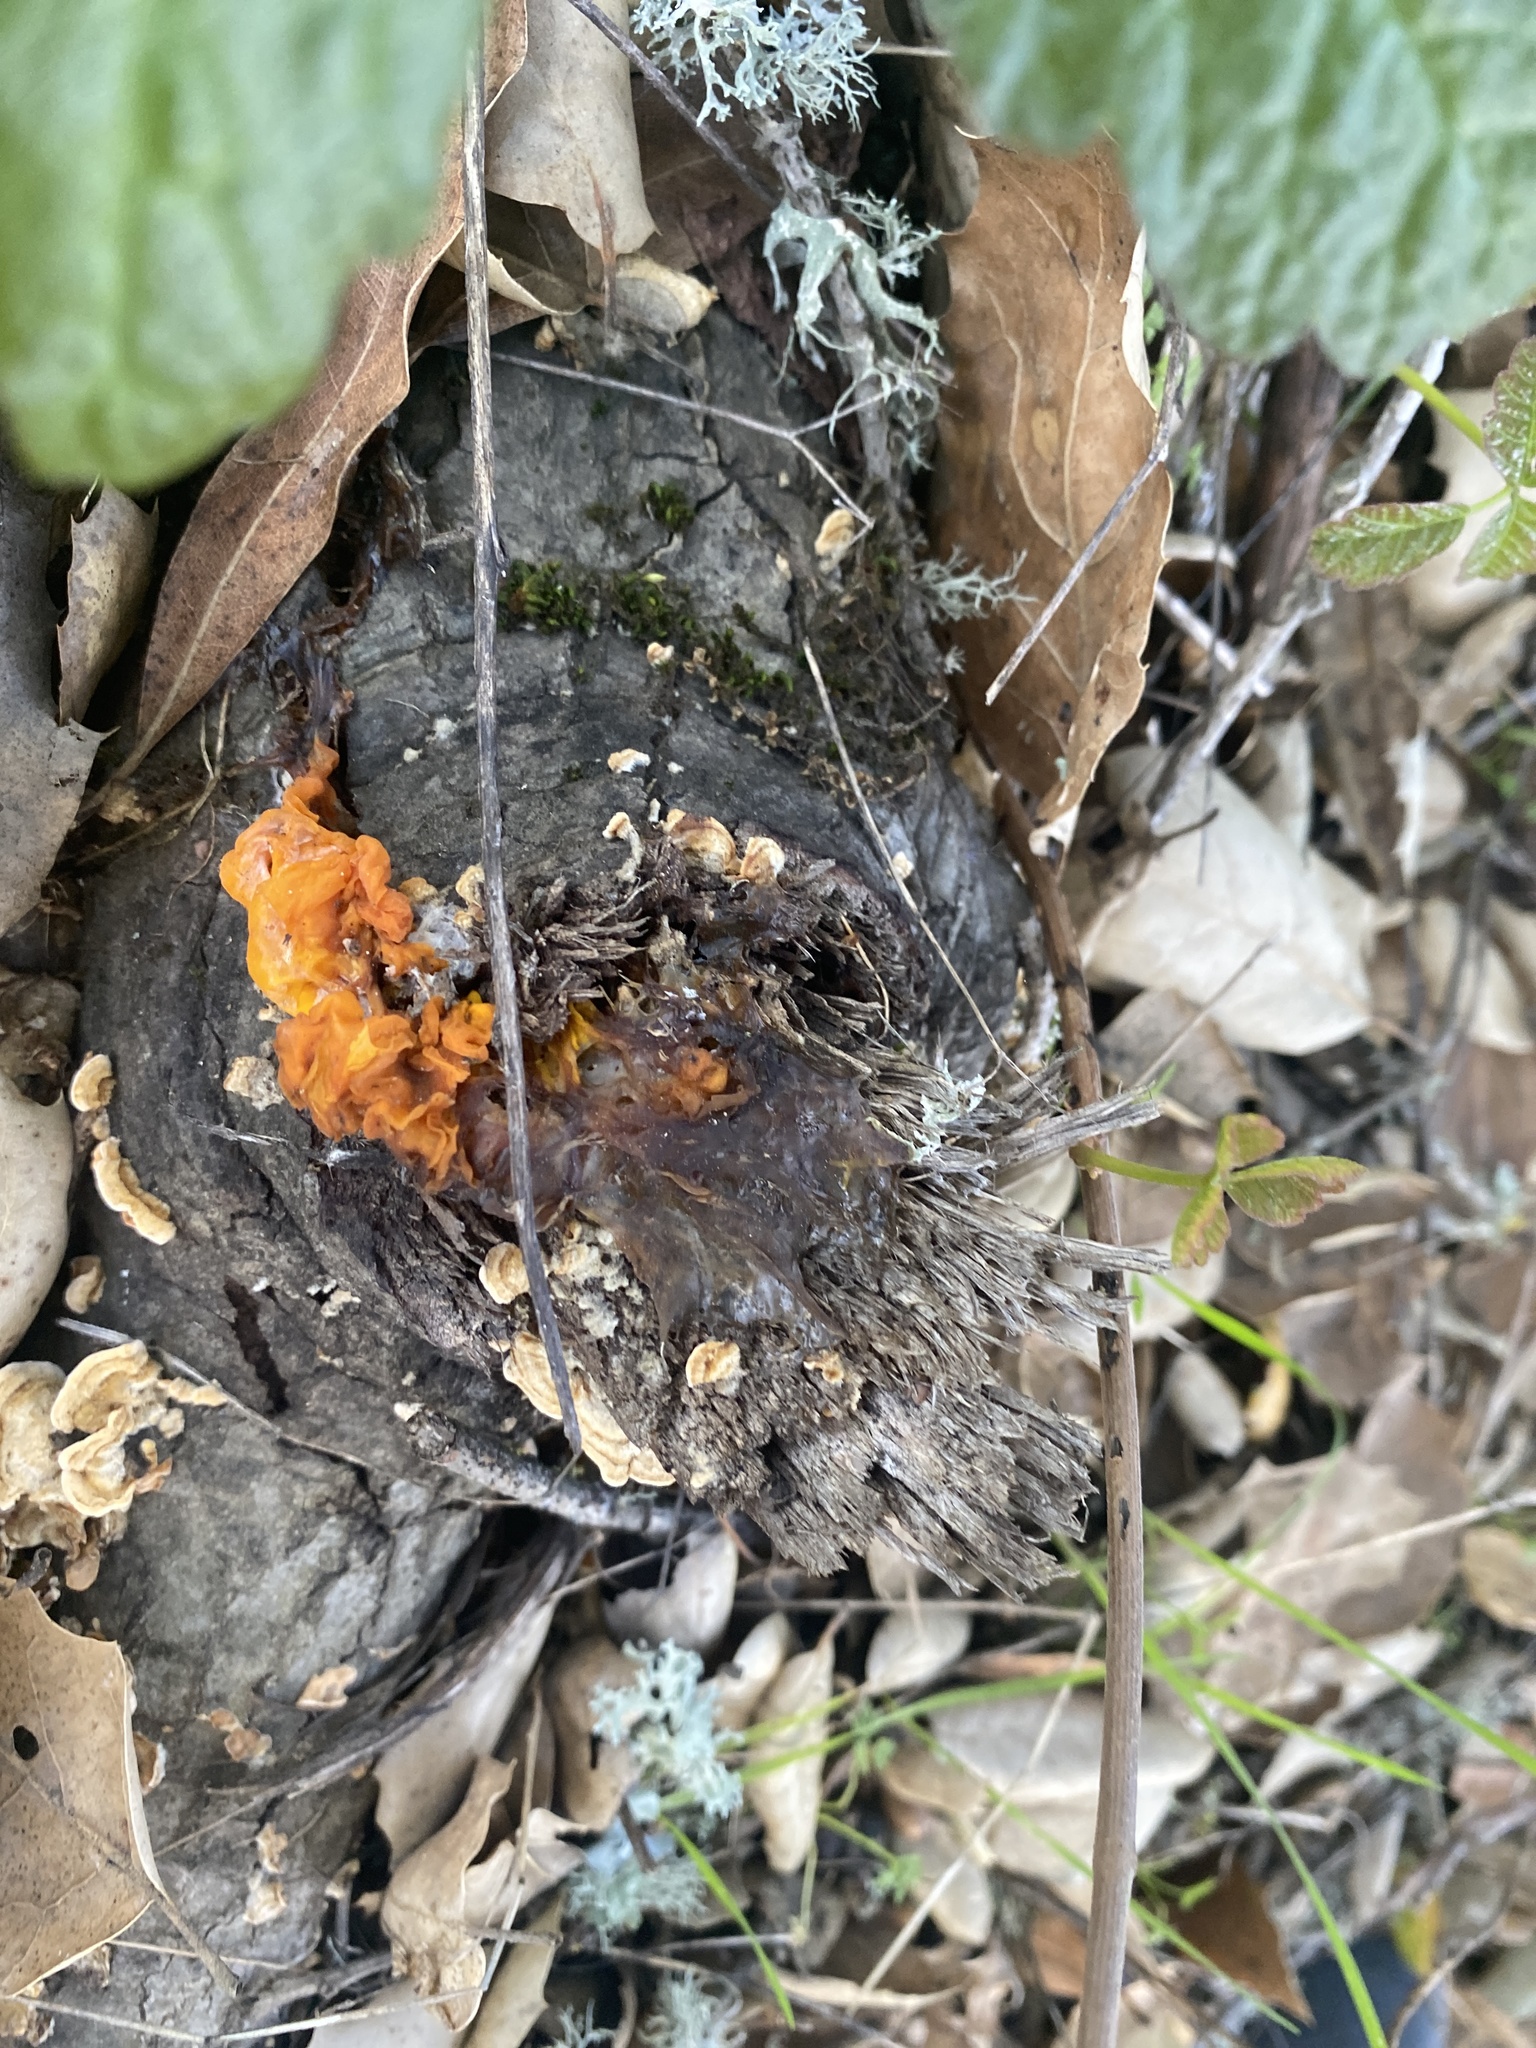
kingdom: Fungi
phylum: Basidiomycota
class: Tremellomycetes
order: Tremellales
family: Naemateliaceae
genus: Naematelia
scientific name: Naematelia aurantia
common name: Golden ear
